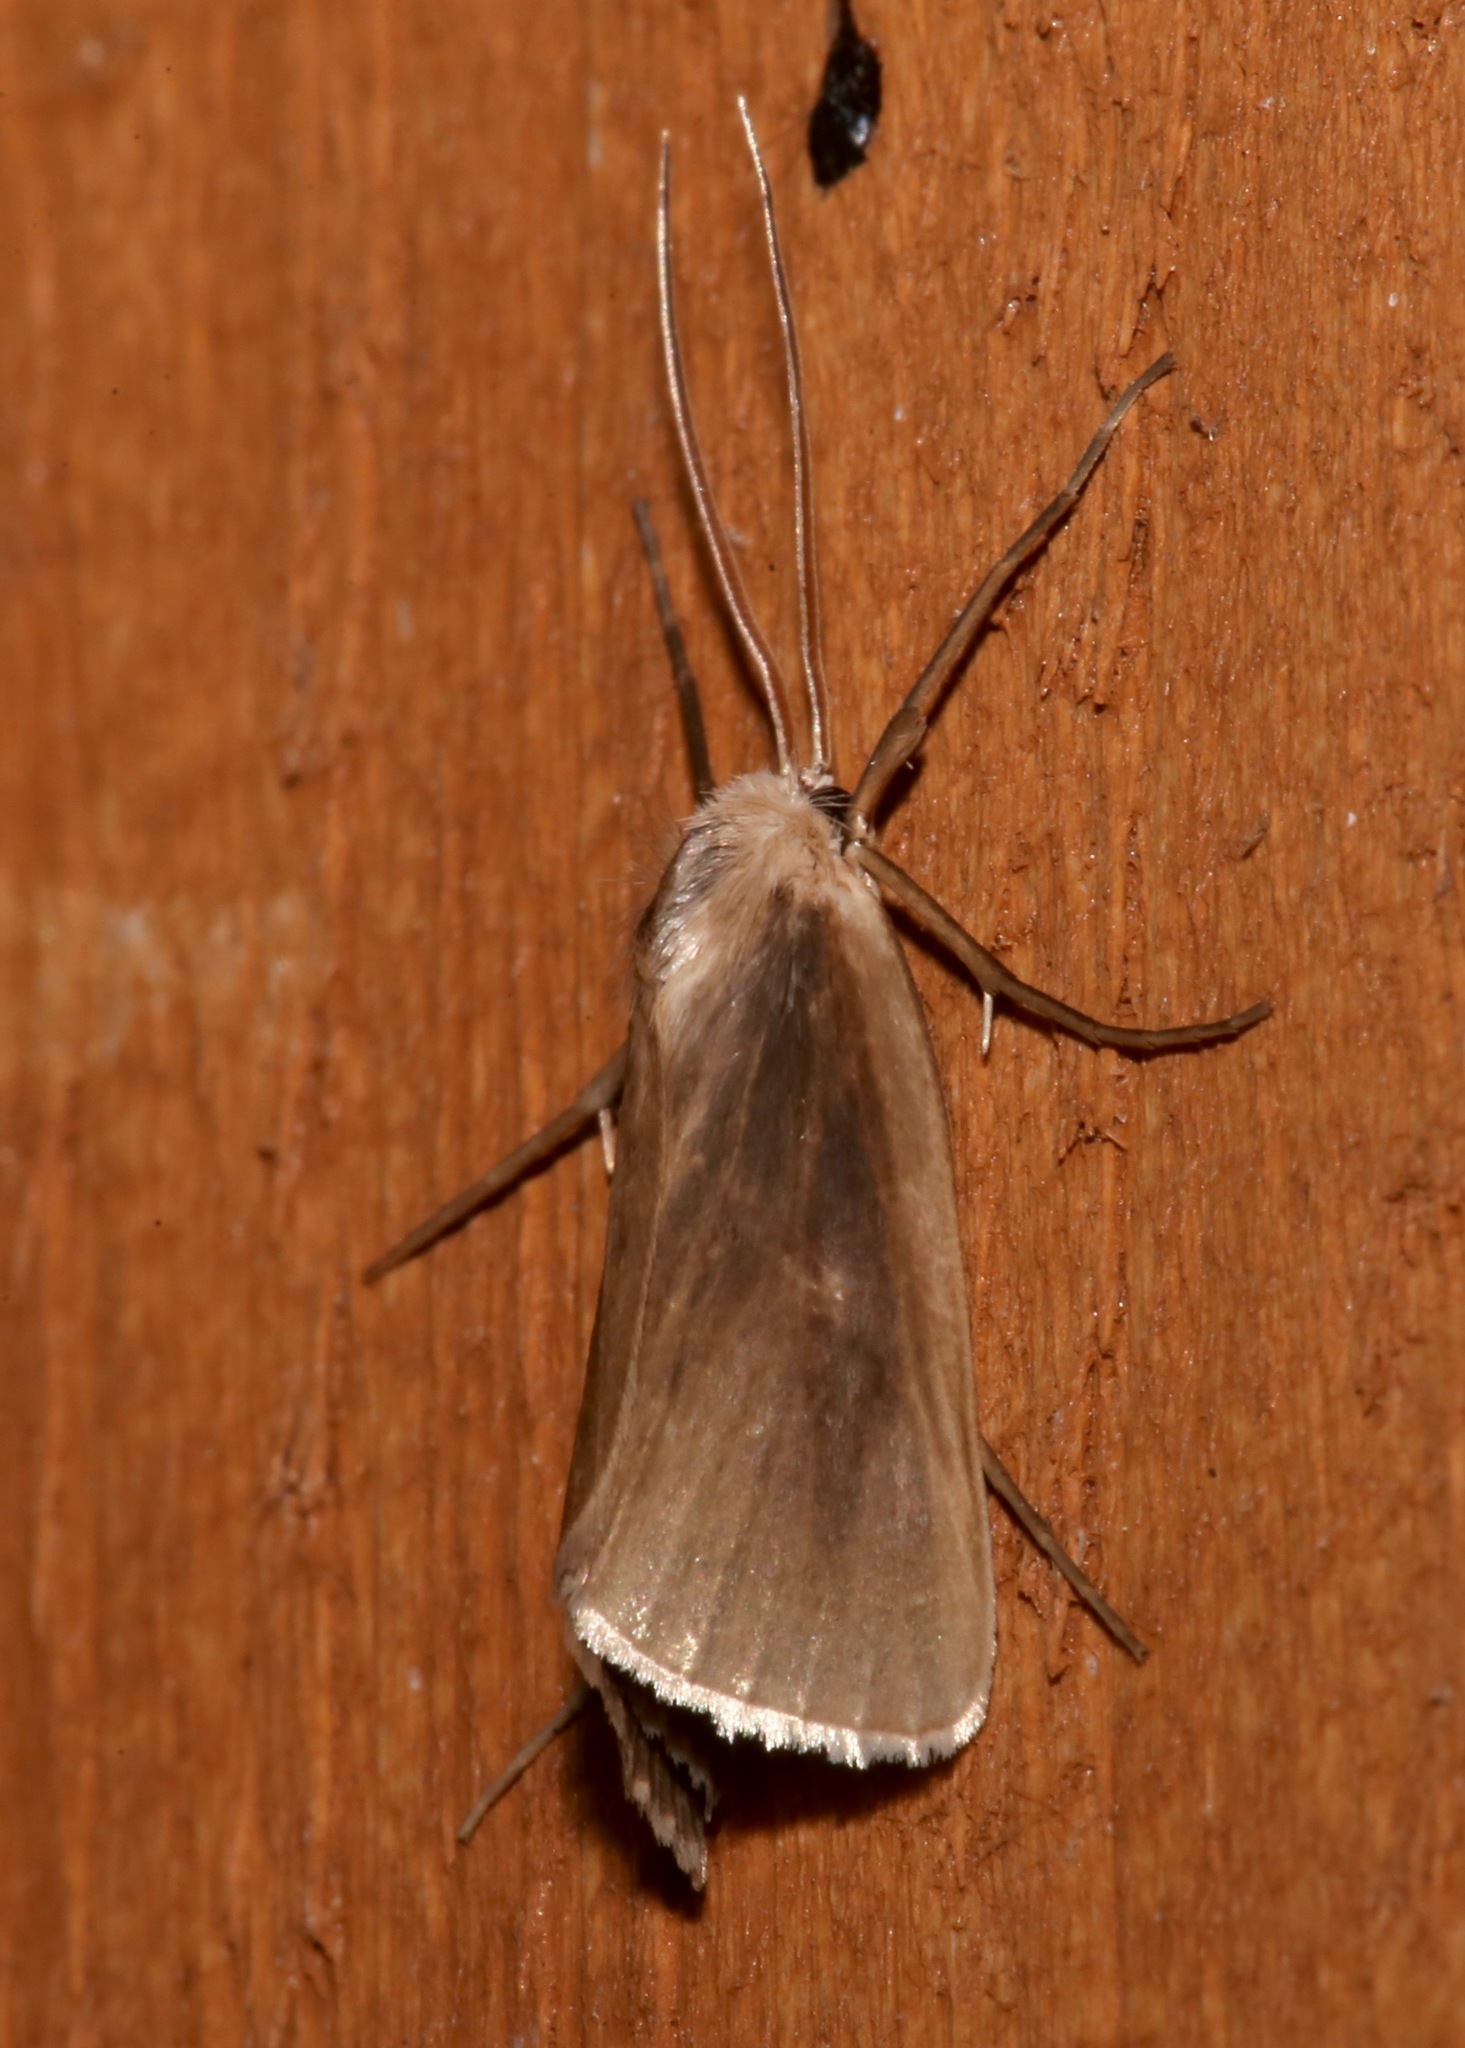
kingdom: Animalia
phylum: Arthropoda
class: Insecta
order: Lepidoptera
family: Crambidae
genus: Rupela
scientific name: Rupela tinctella
